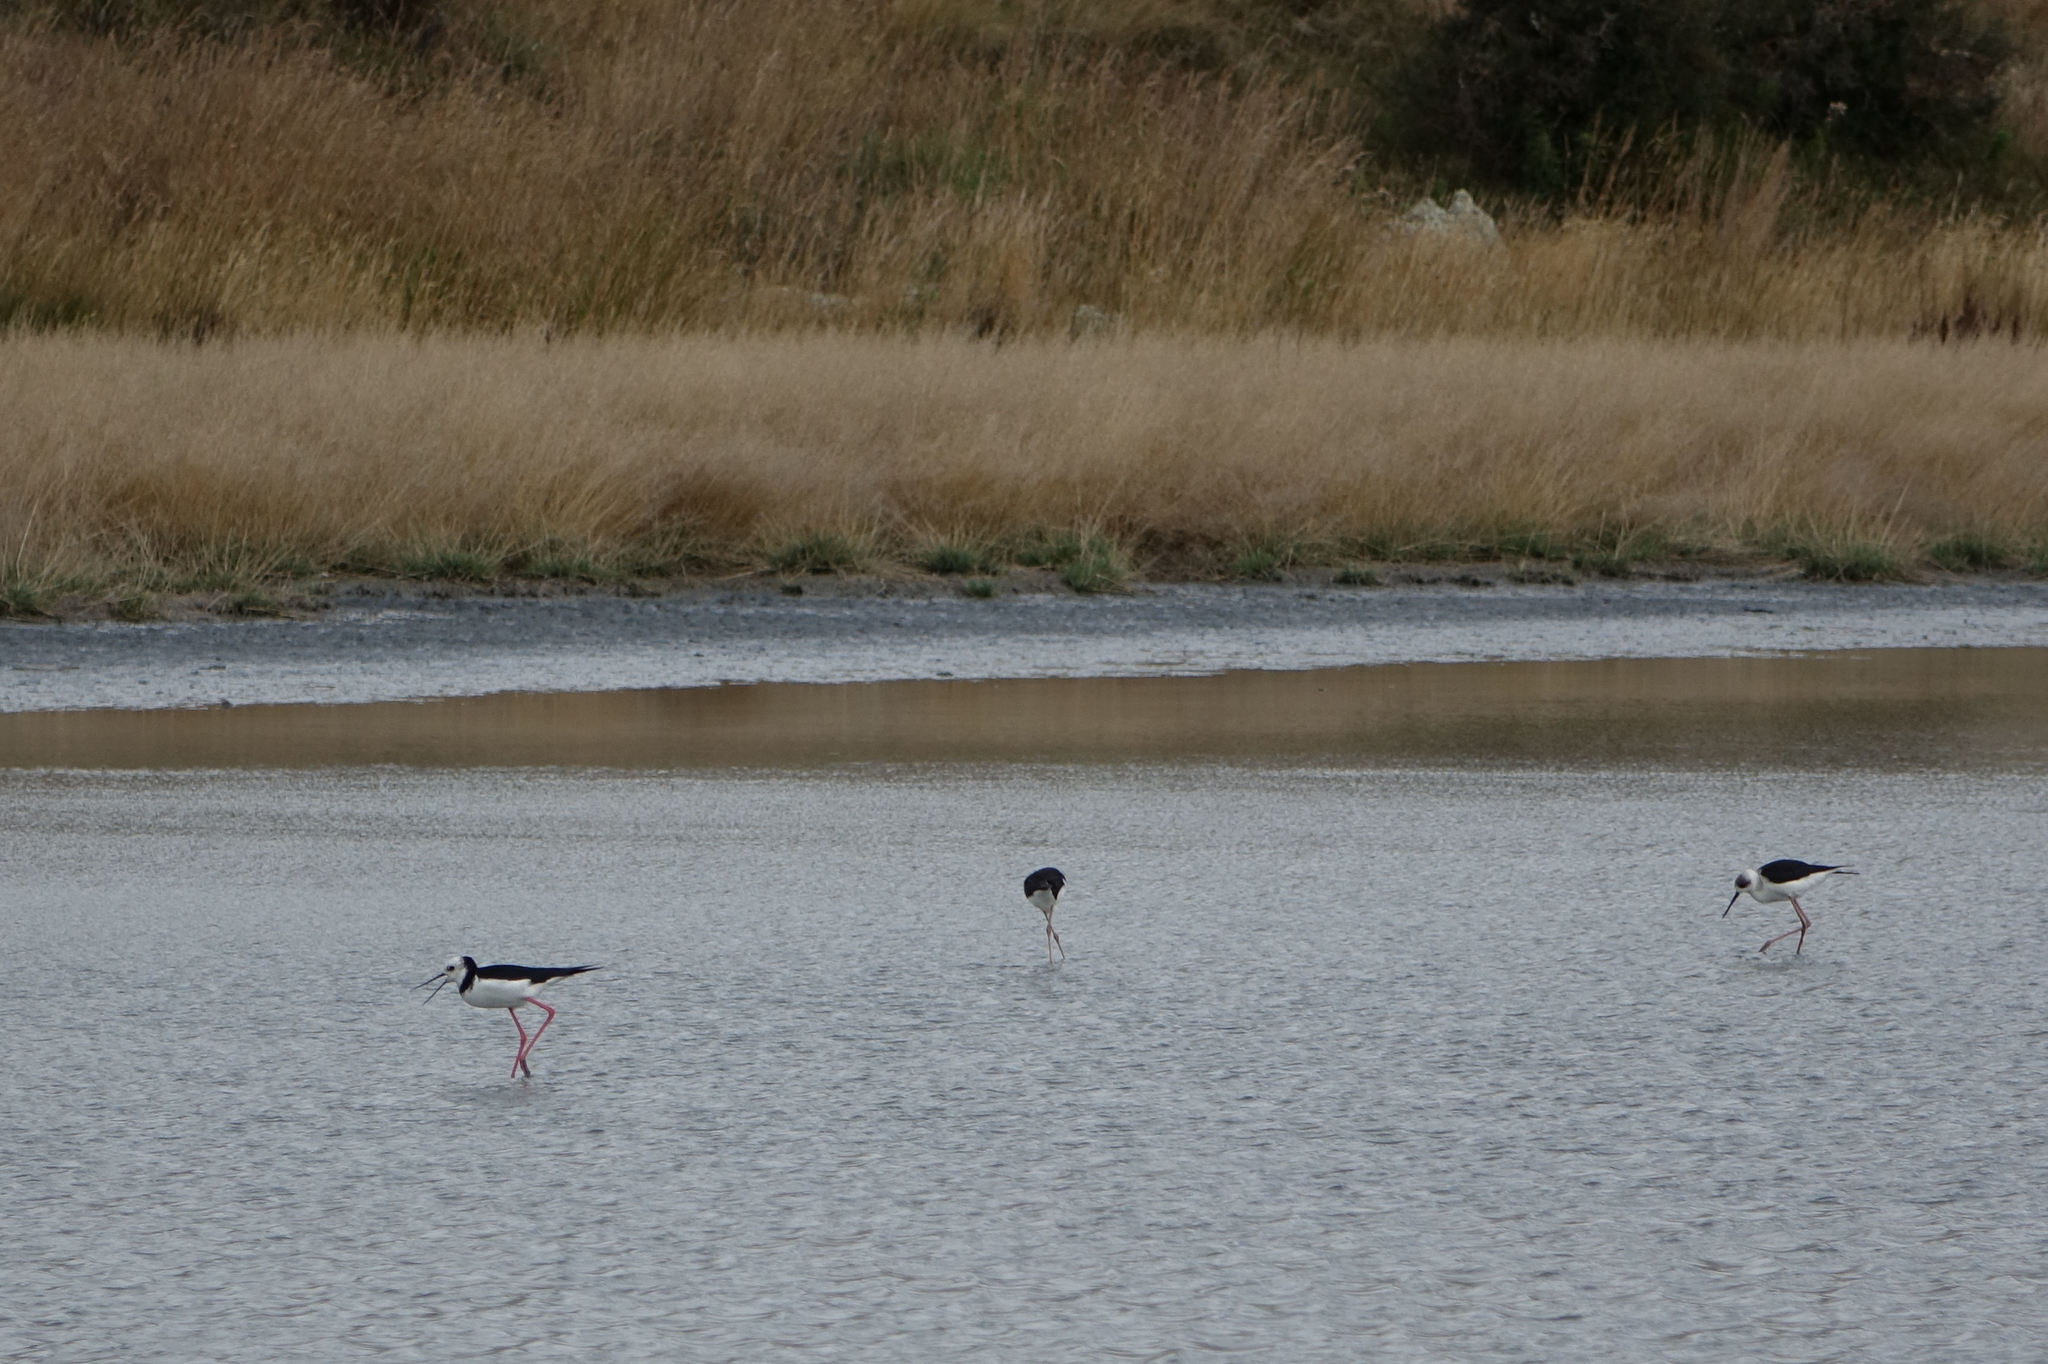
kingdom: Animalia
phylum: Chordata
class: Aves
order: Charadriiformes
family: Recurvirostridae
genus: Himantopus
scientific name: Himantopus leucocephalus
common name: White-headed stilt
